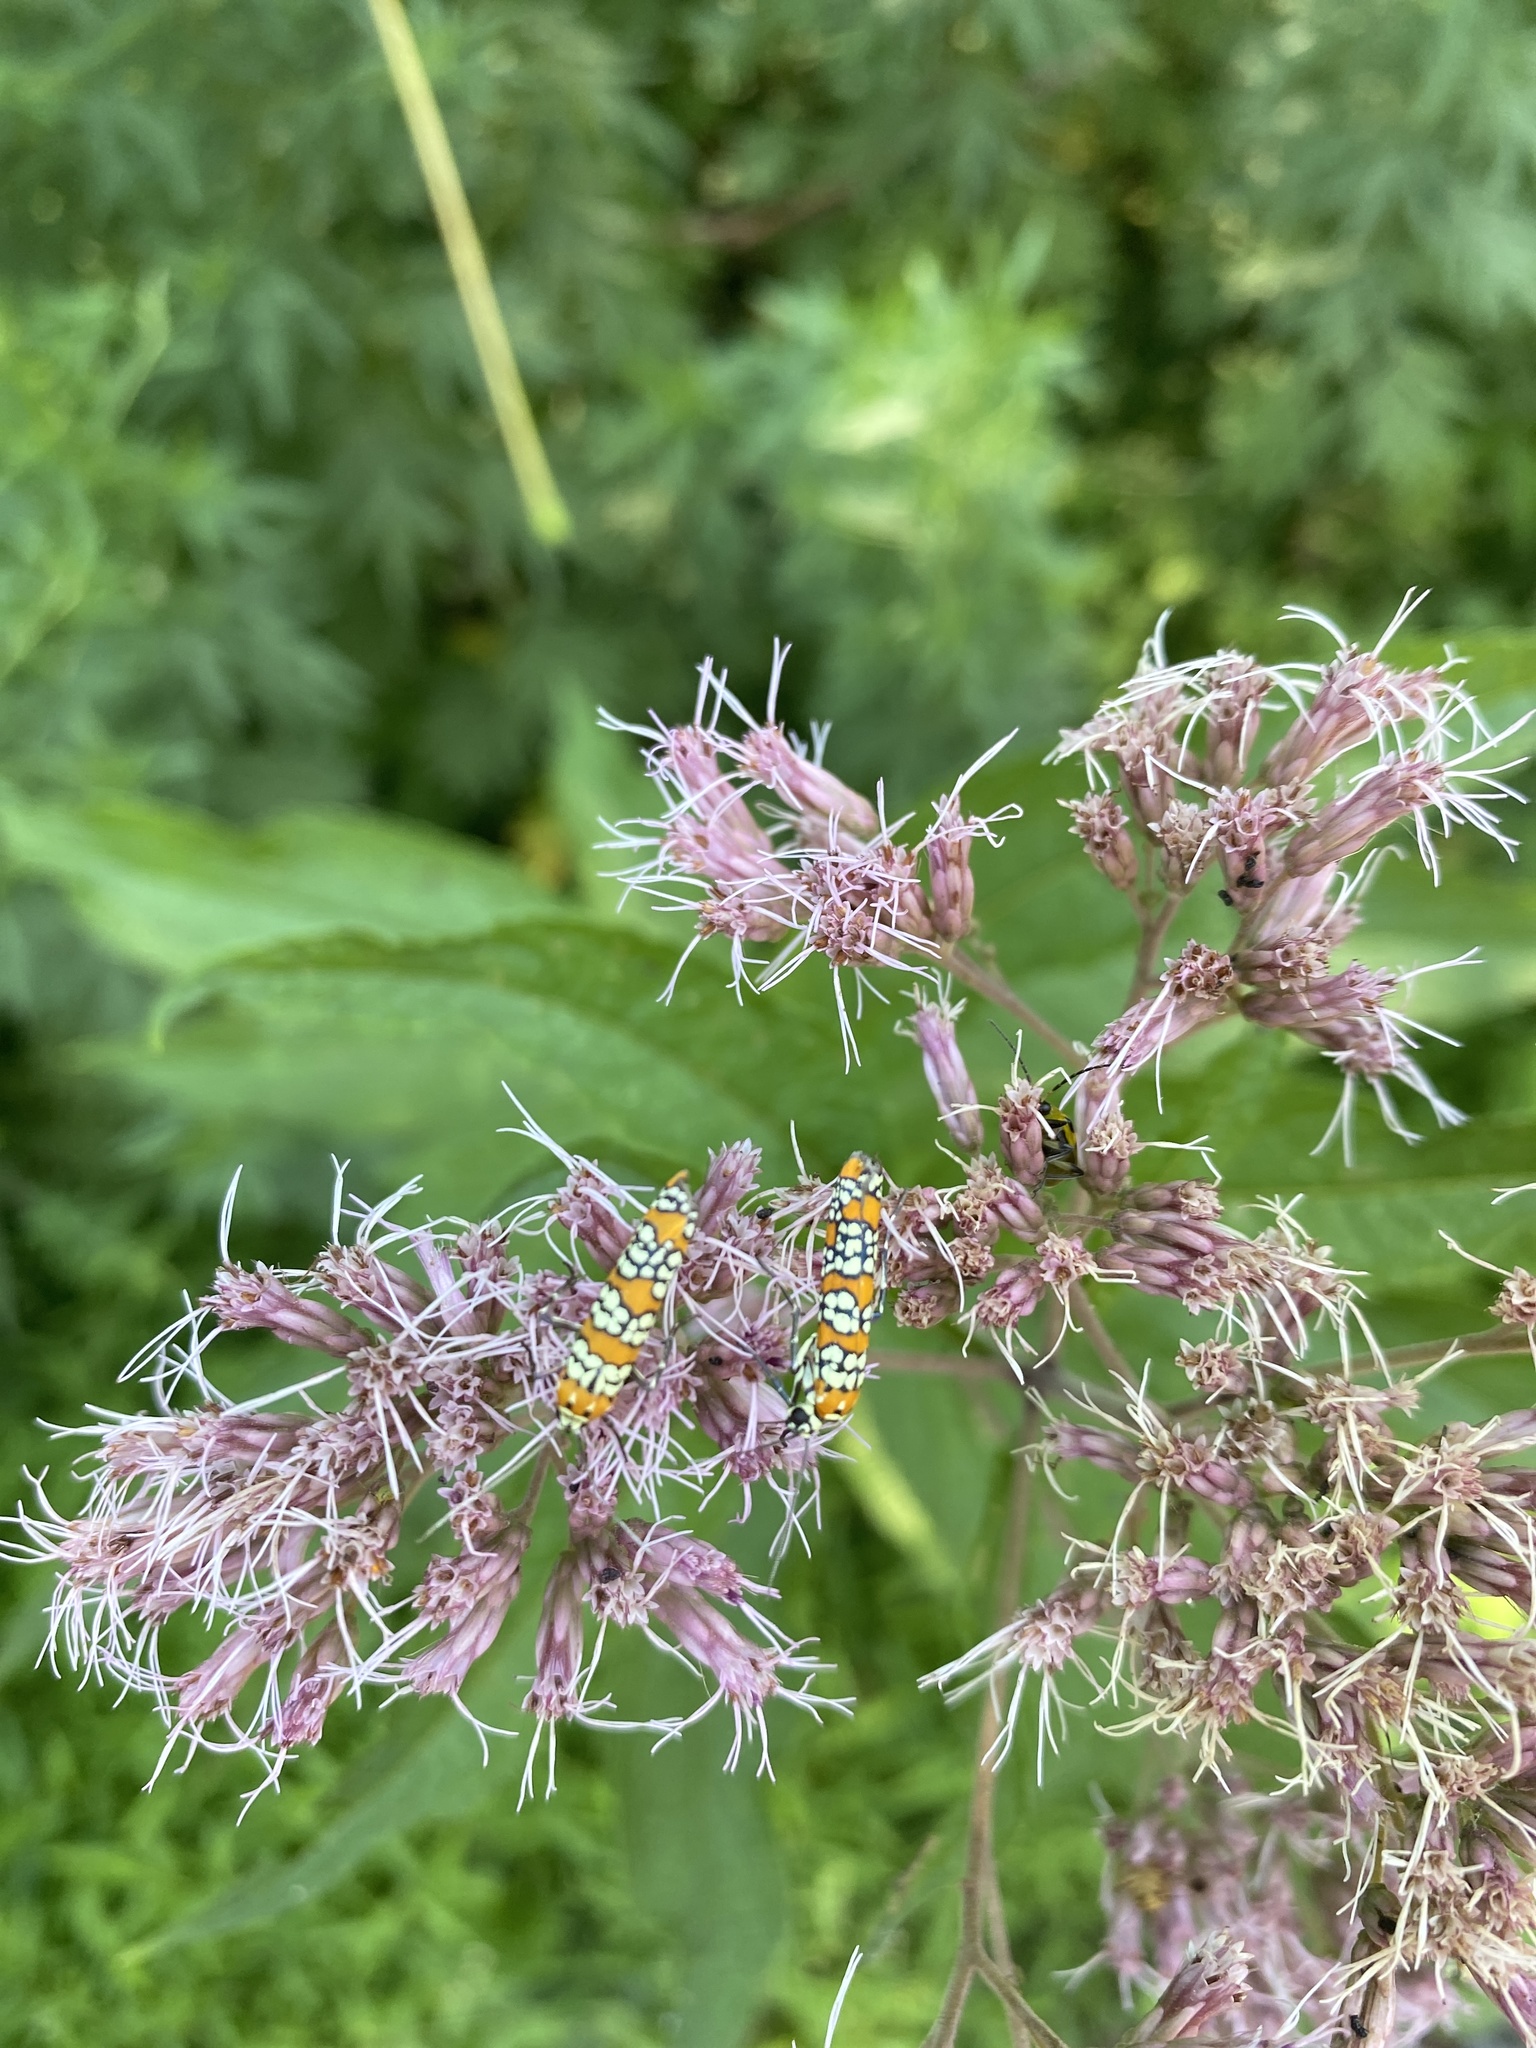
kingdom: Animalia
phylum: Arthropoda
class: Insecta
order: Lepidoptera
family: Attevidae
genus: Atteva
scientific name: Atteva punctella
